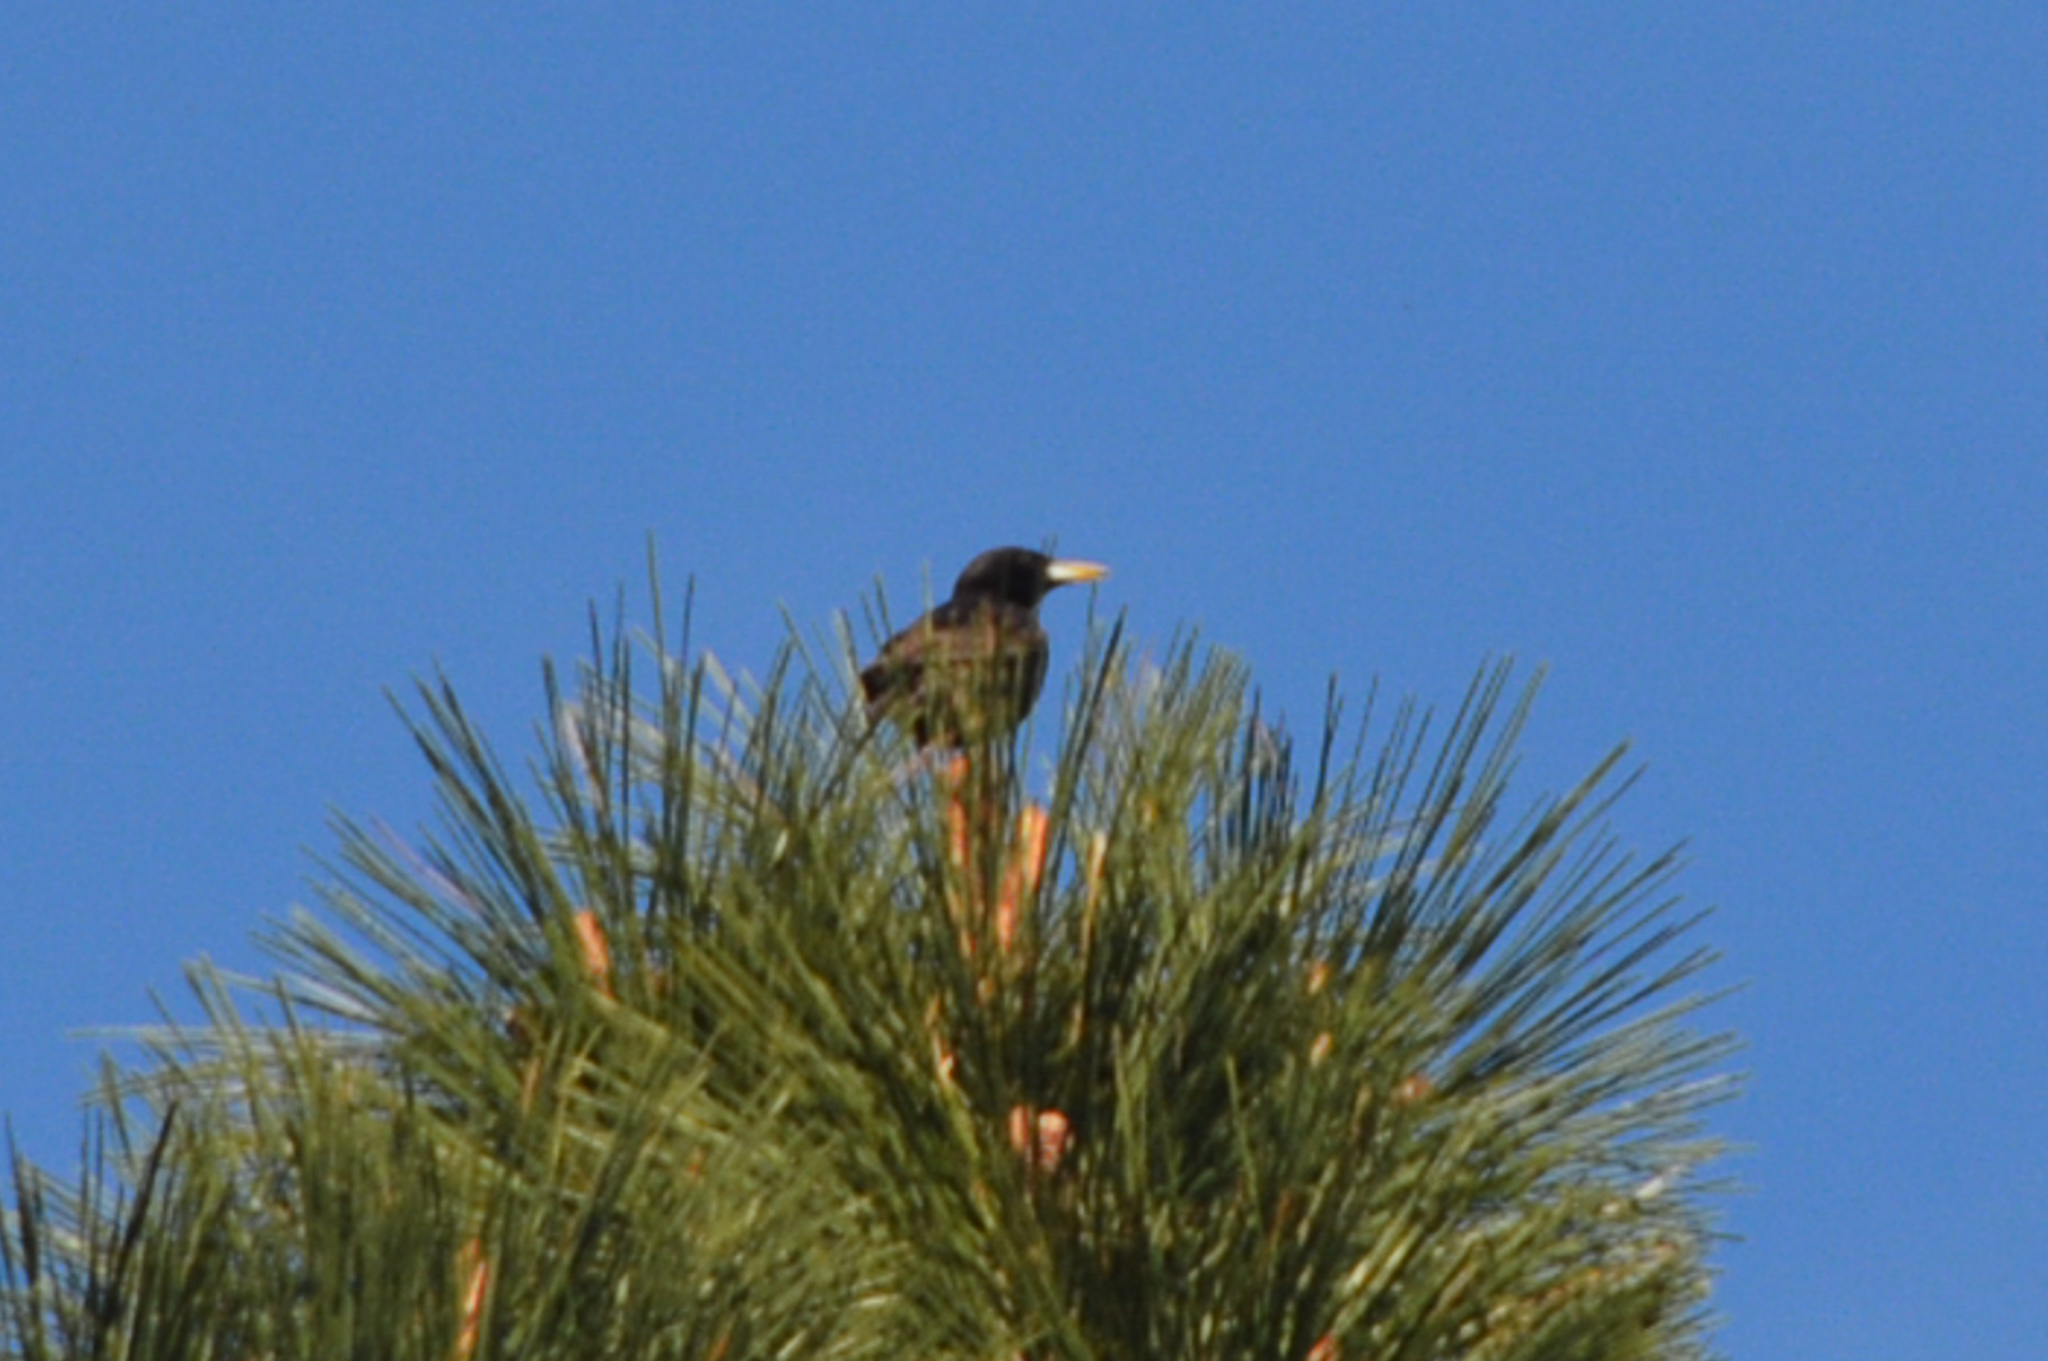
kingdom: Animalia
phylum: Chordata
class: Aves
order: Passeriformes
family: Sturnidae
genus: Sturnus
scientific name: Sturnus vulgaris
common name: Common starling
